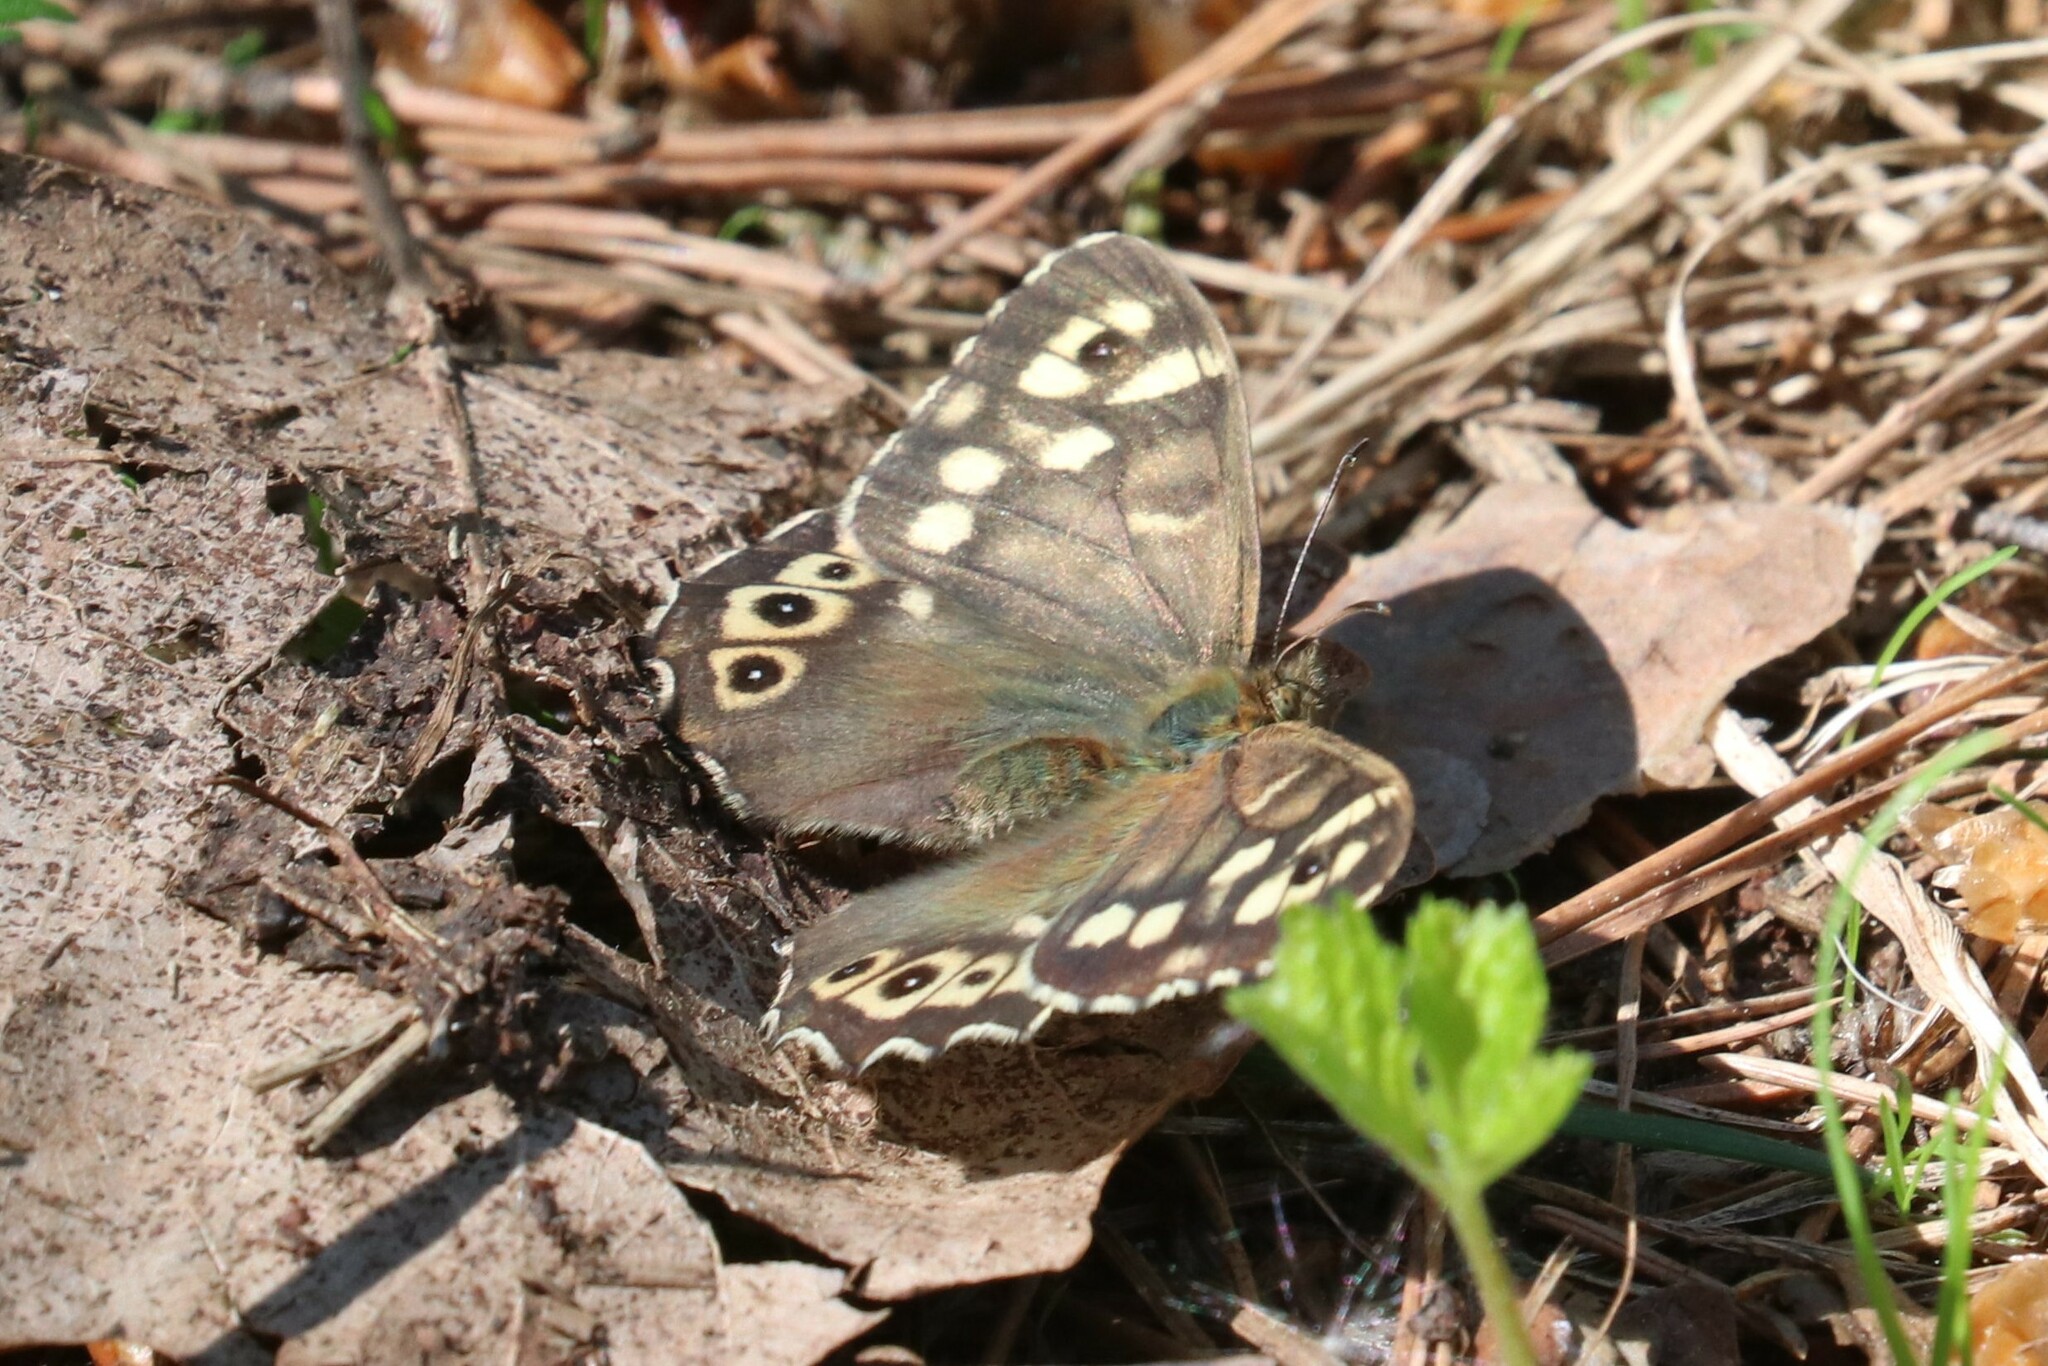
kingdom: Animalia
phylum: Arthropoda
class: Insecta
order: Lepidoptera
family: Nymphalidae
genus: Pararge
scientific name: Pararge aegeria
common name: Speckled wood
